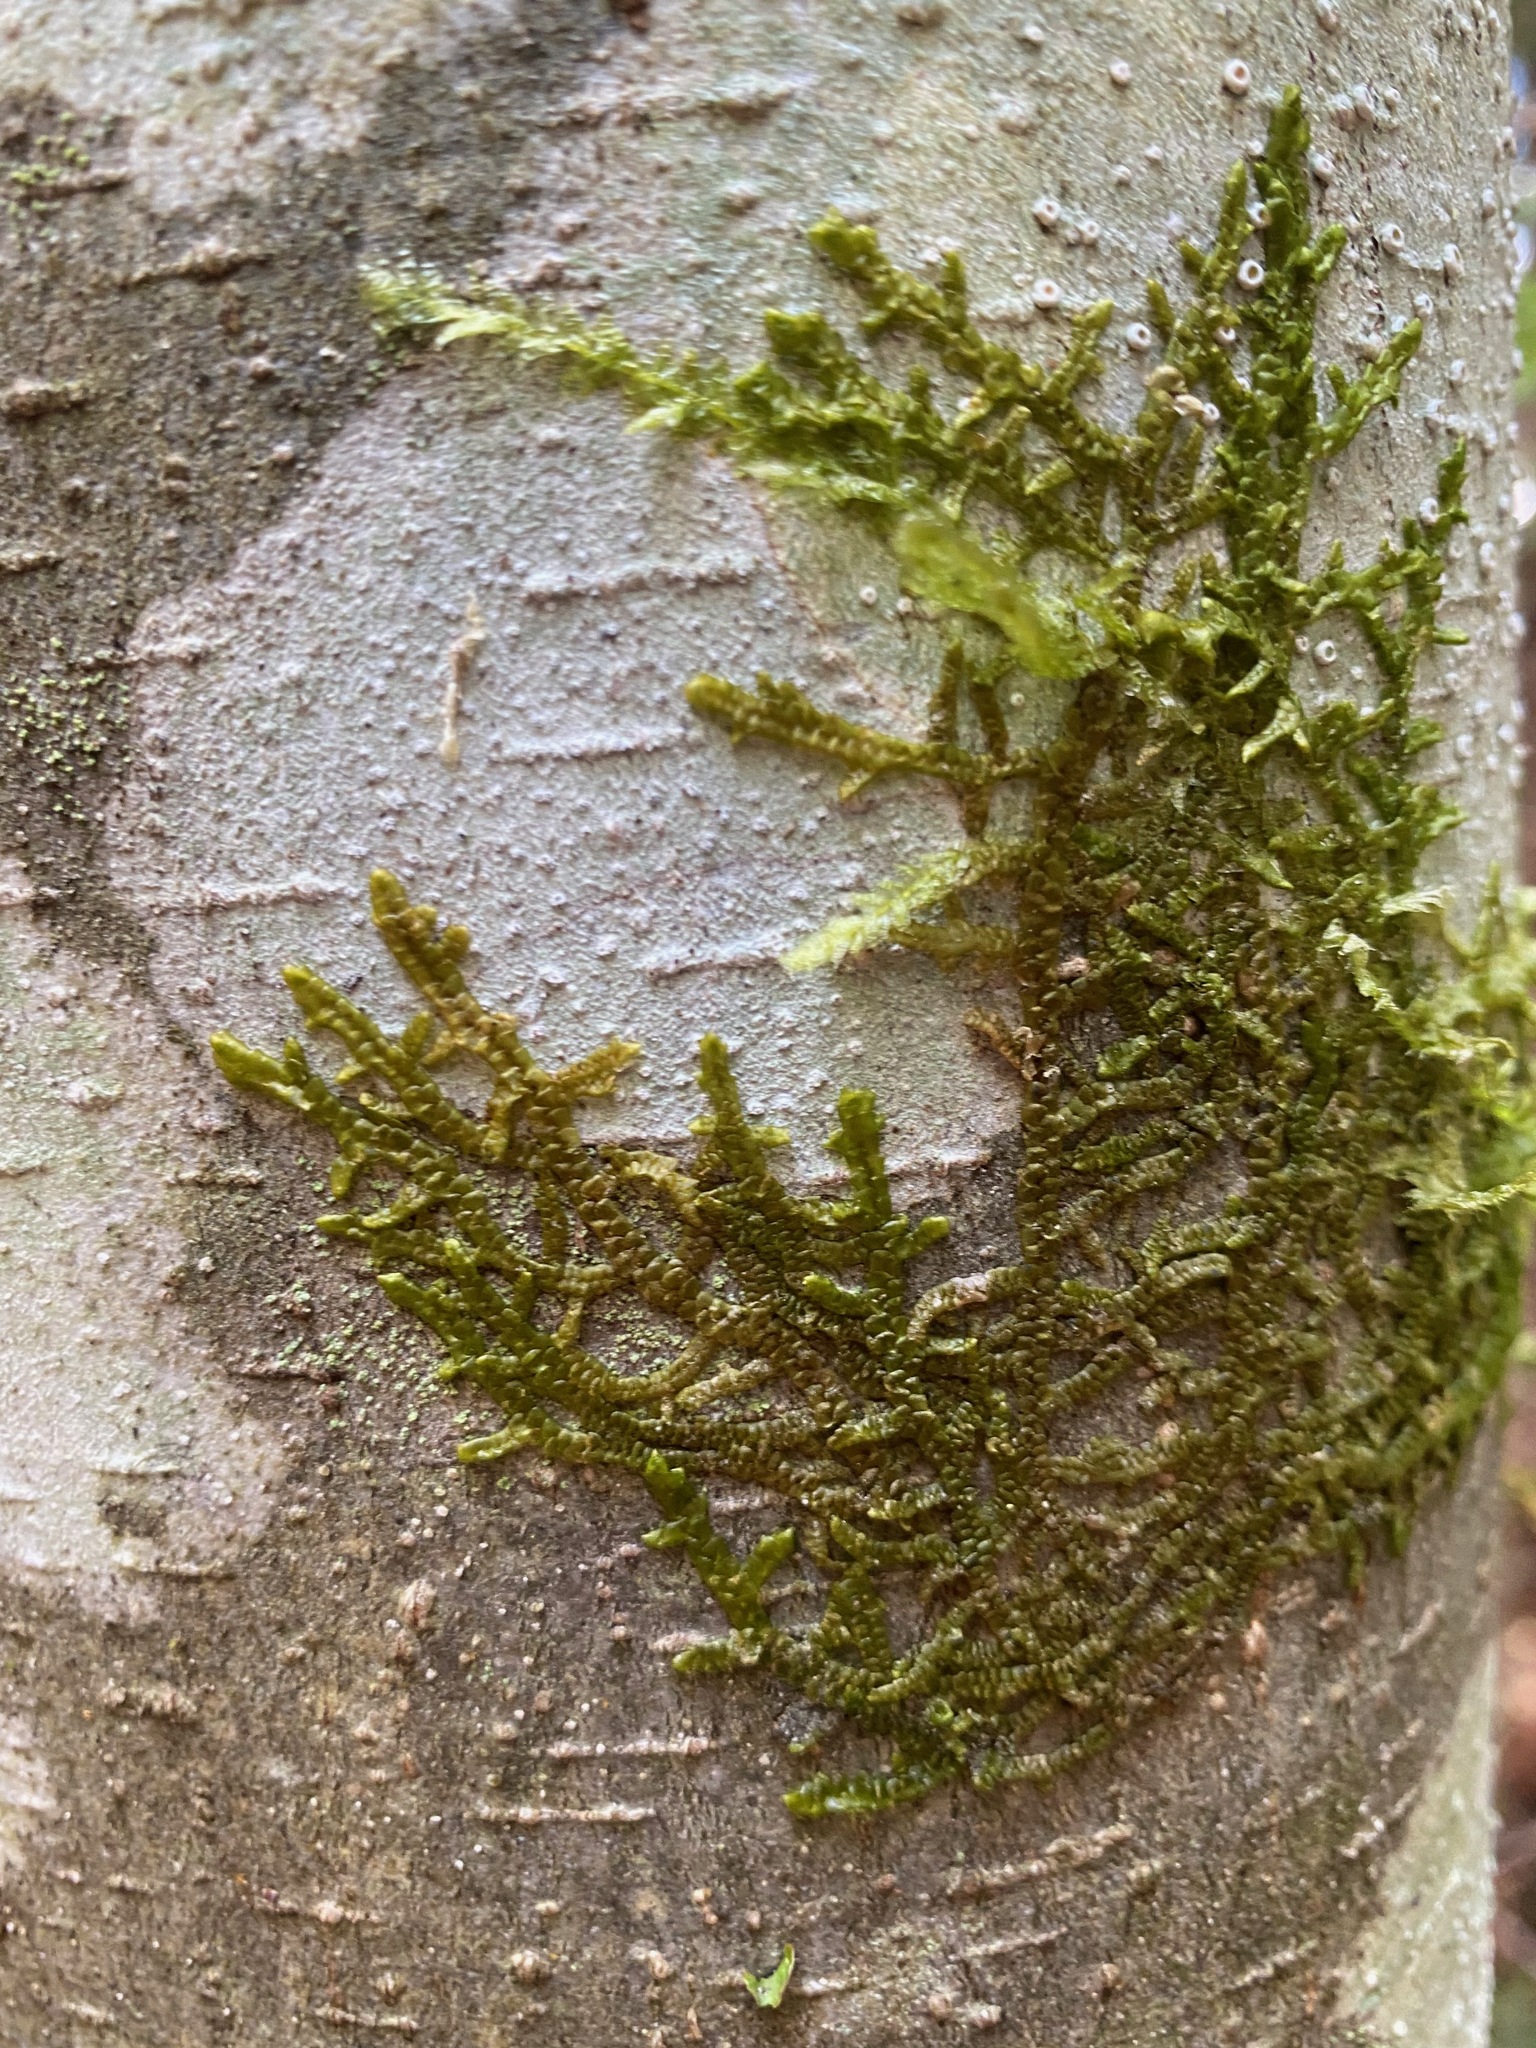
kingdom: Plantae
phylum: Marchantiophyta
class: Jungermanniopsida
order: Porellales
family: Porellaceae
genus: Porella
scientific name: Porella navicularis
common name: Tree ruffle liverwort
